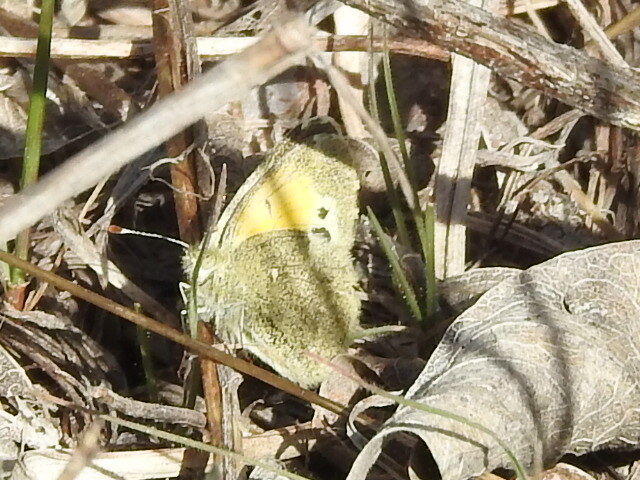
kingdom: Animalia
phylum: Arthropoda
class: Insecta
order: Lepidoptera
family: Pieridae
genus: Nathalis
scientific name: Nathalis iole
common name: Dainty sulphur
